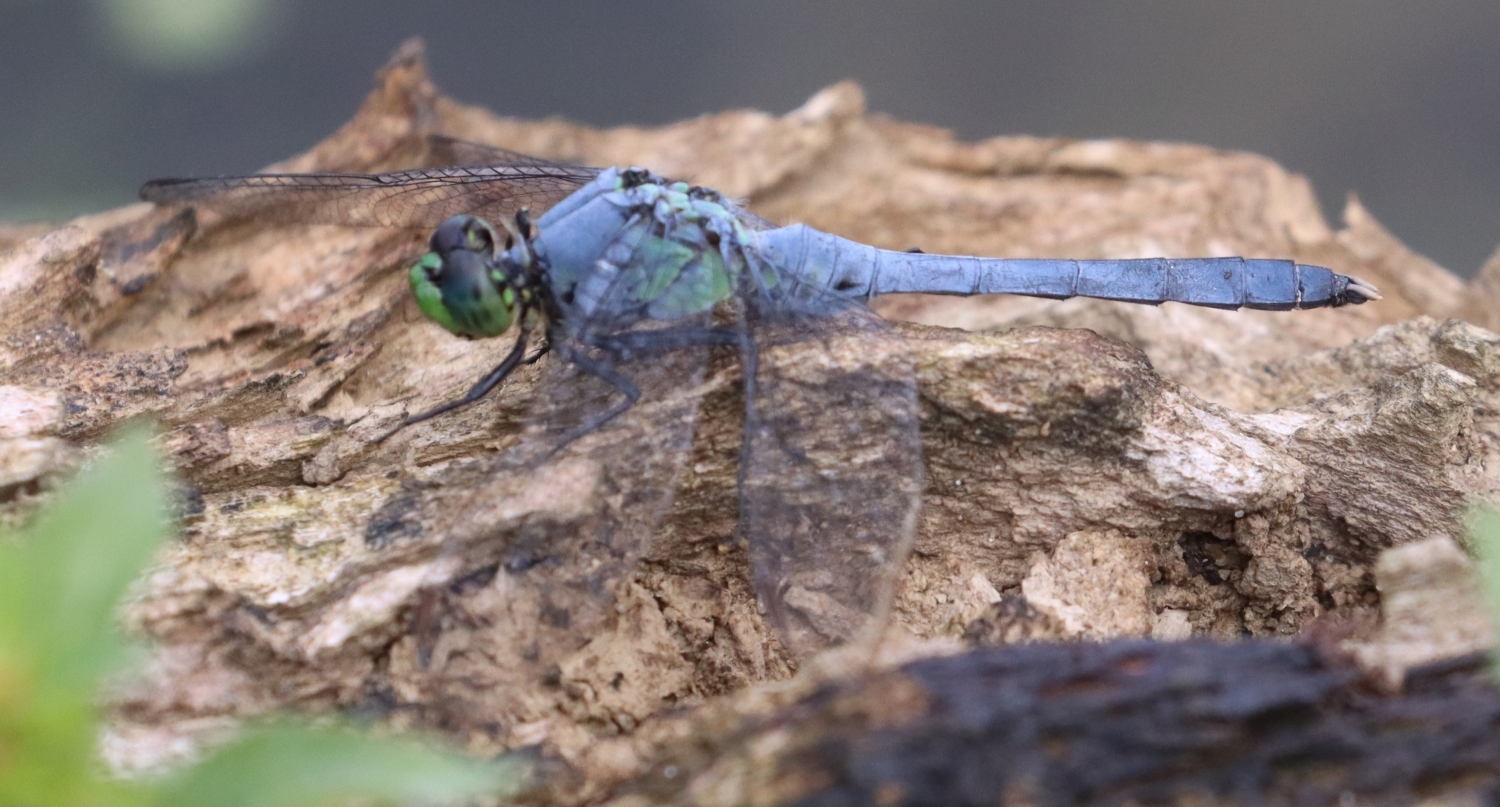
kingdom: Animalia
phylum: Arthropoda
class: Insecta
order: Odonata
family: Libellulidae
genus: Erythemis
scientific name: Erythemis simplicicollis
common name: Eastern pondhawk
